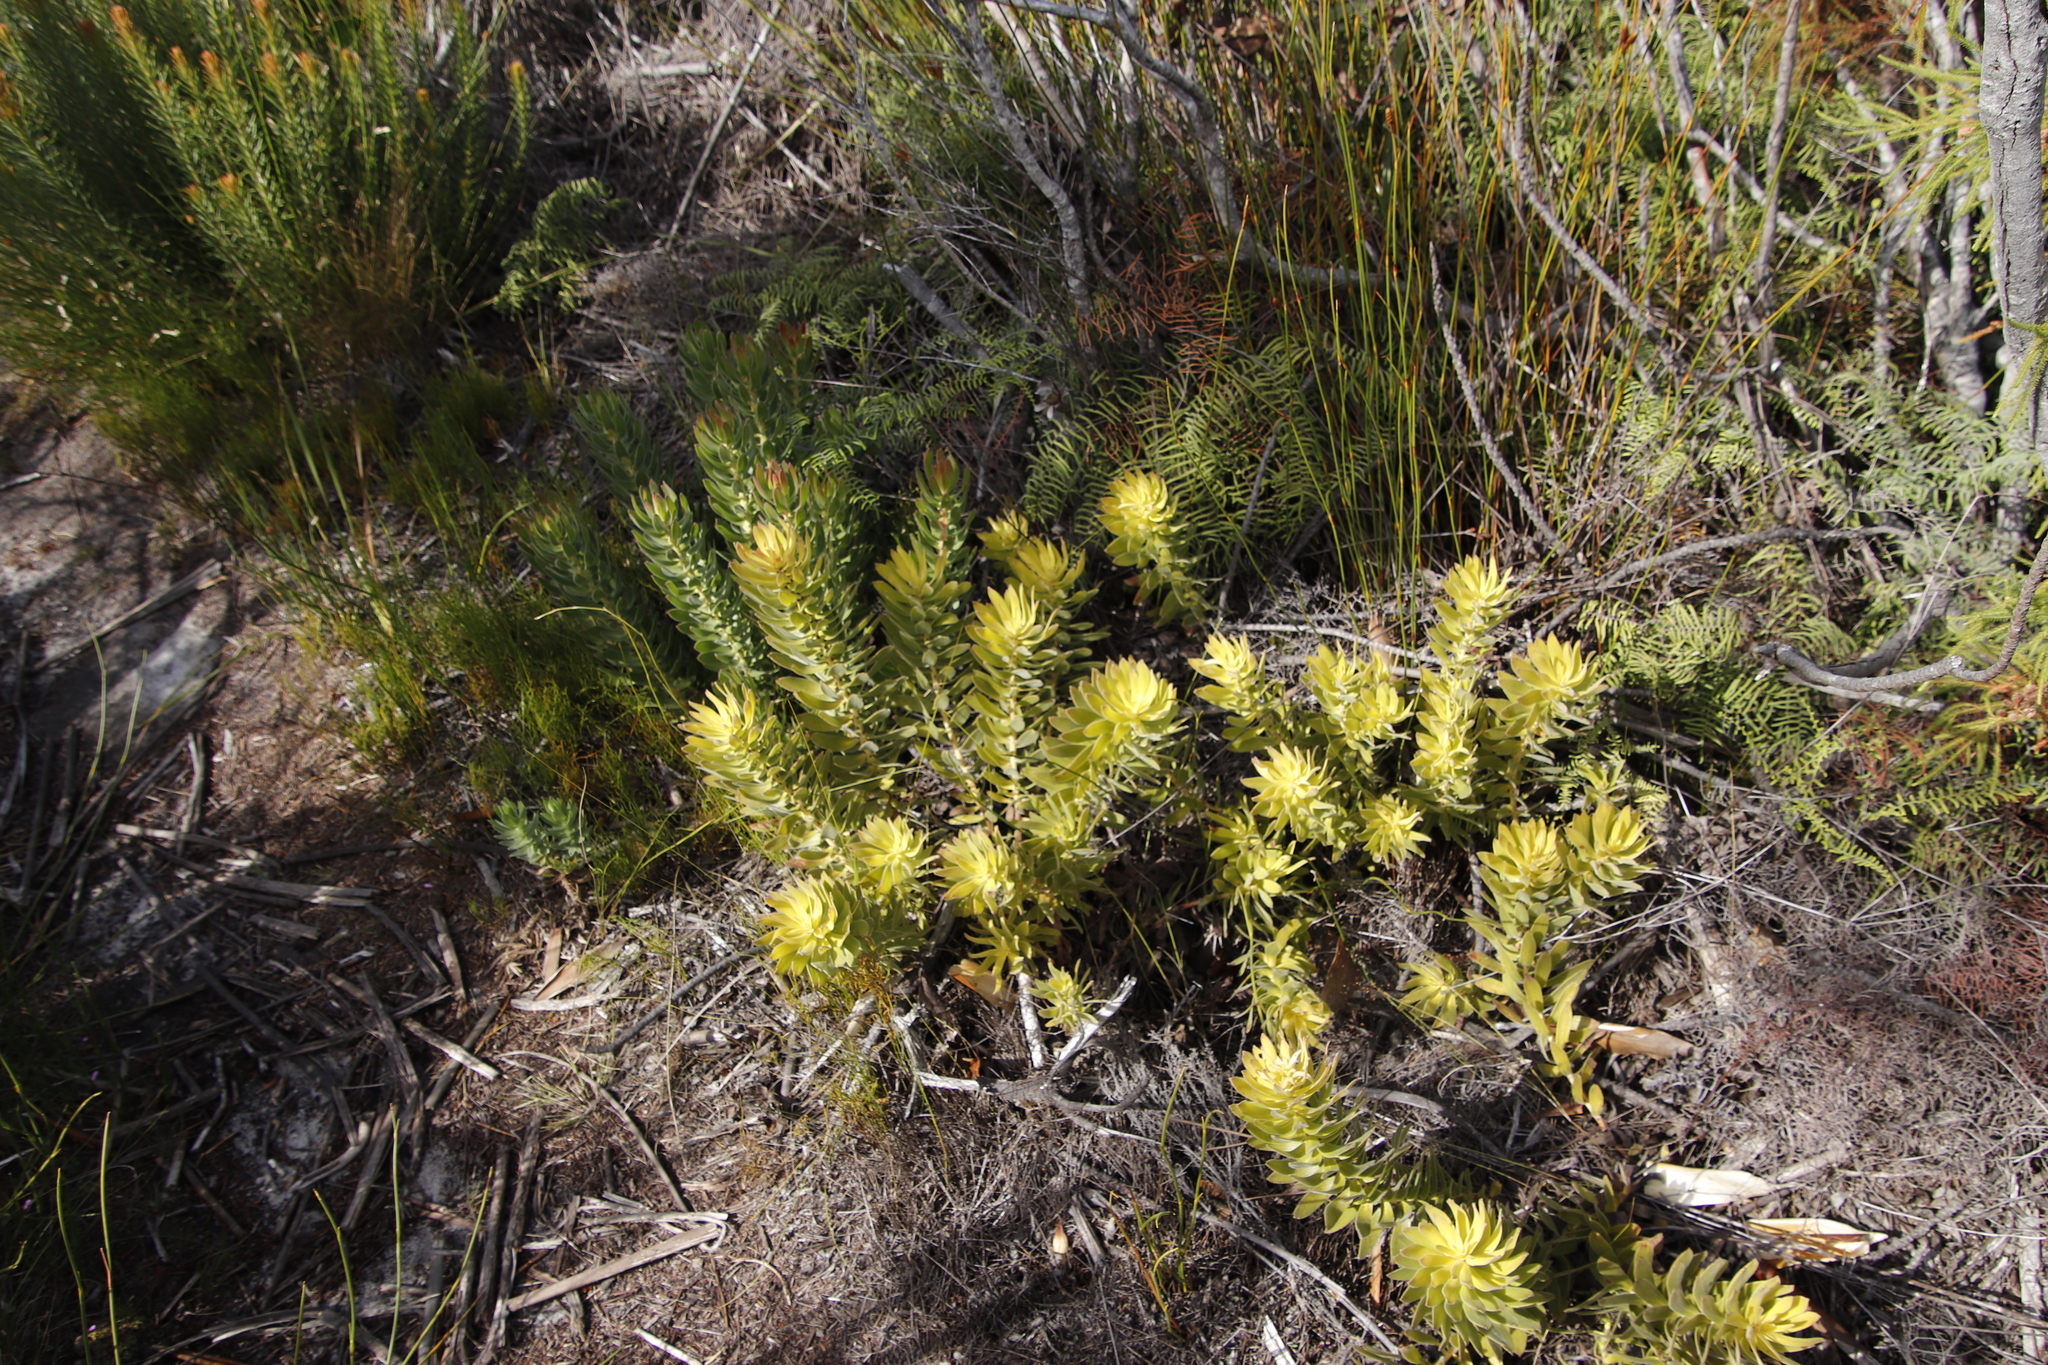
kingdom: Plantae
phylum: Tracheophyta
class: Magnoliopsida
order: Proteales
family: Proteaceae
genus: Mimetes
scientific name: Mimetes cucullatus
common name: Common pagoda
